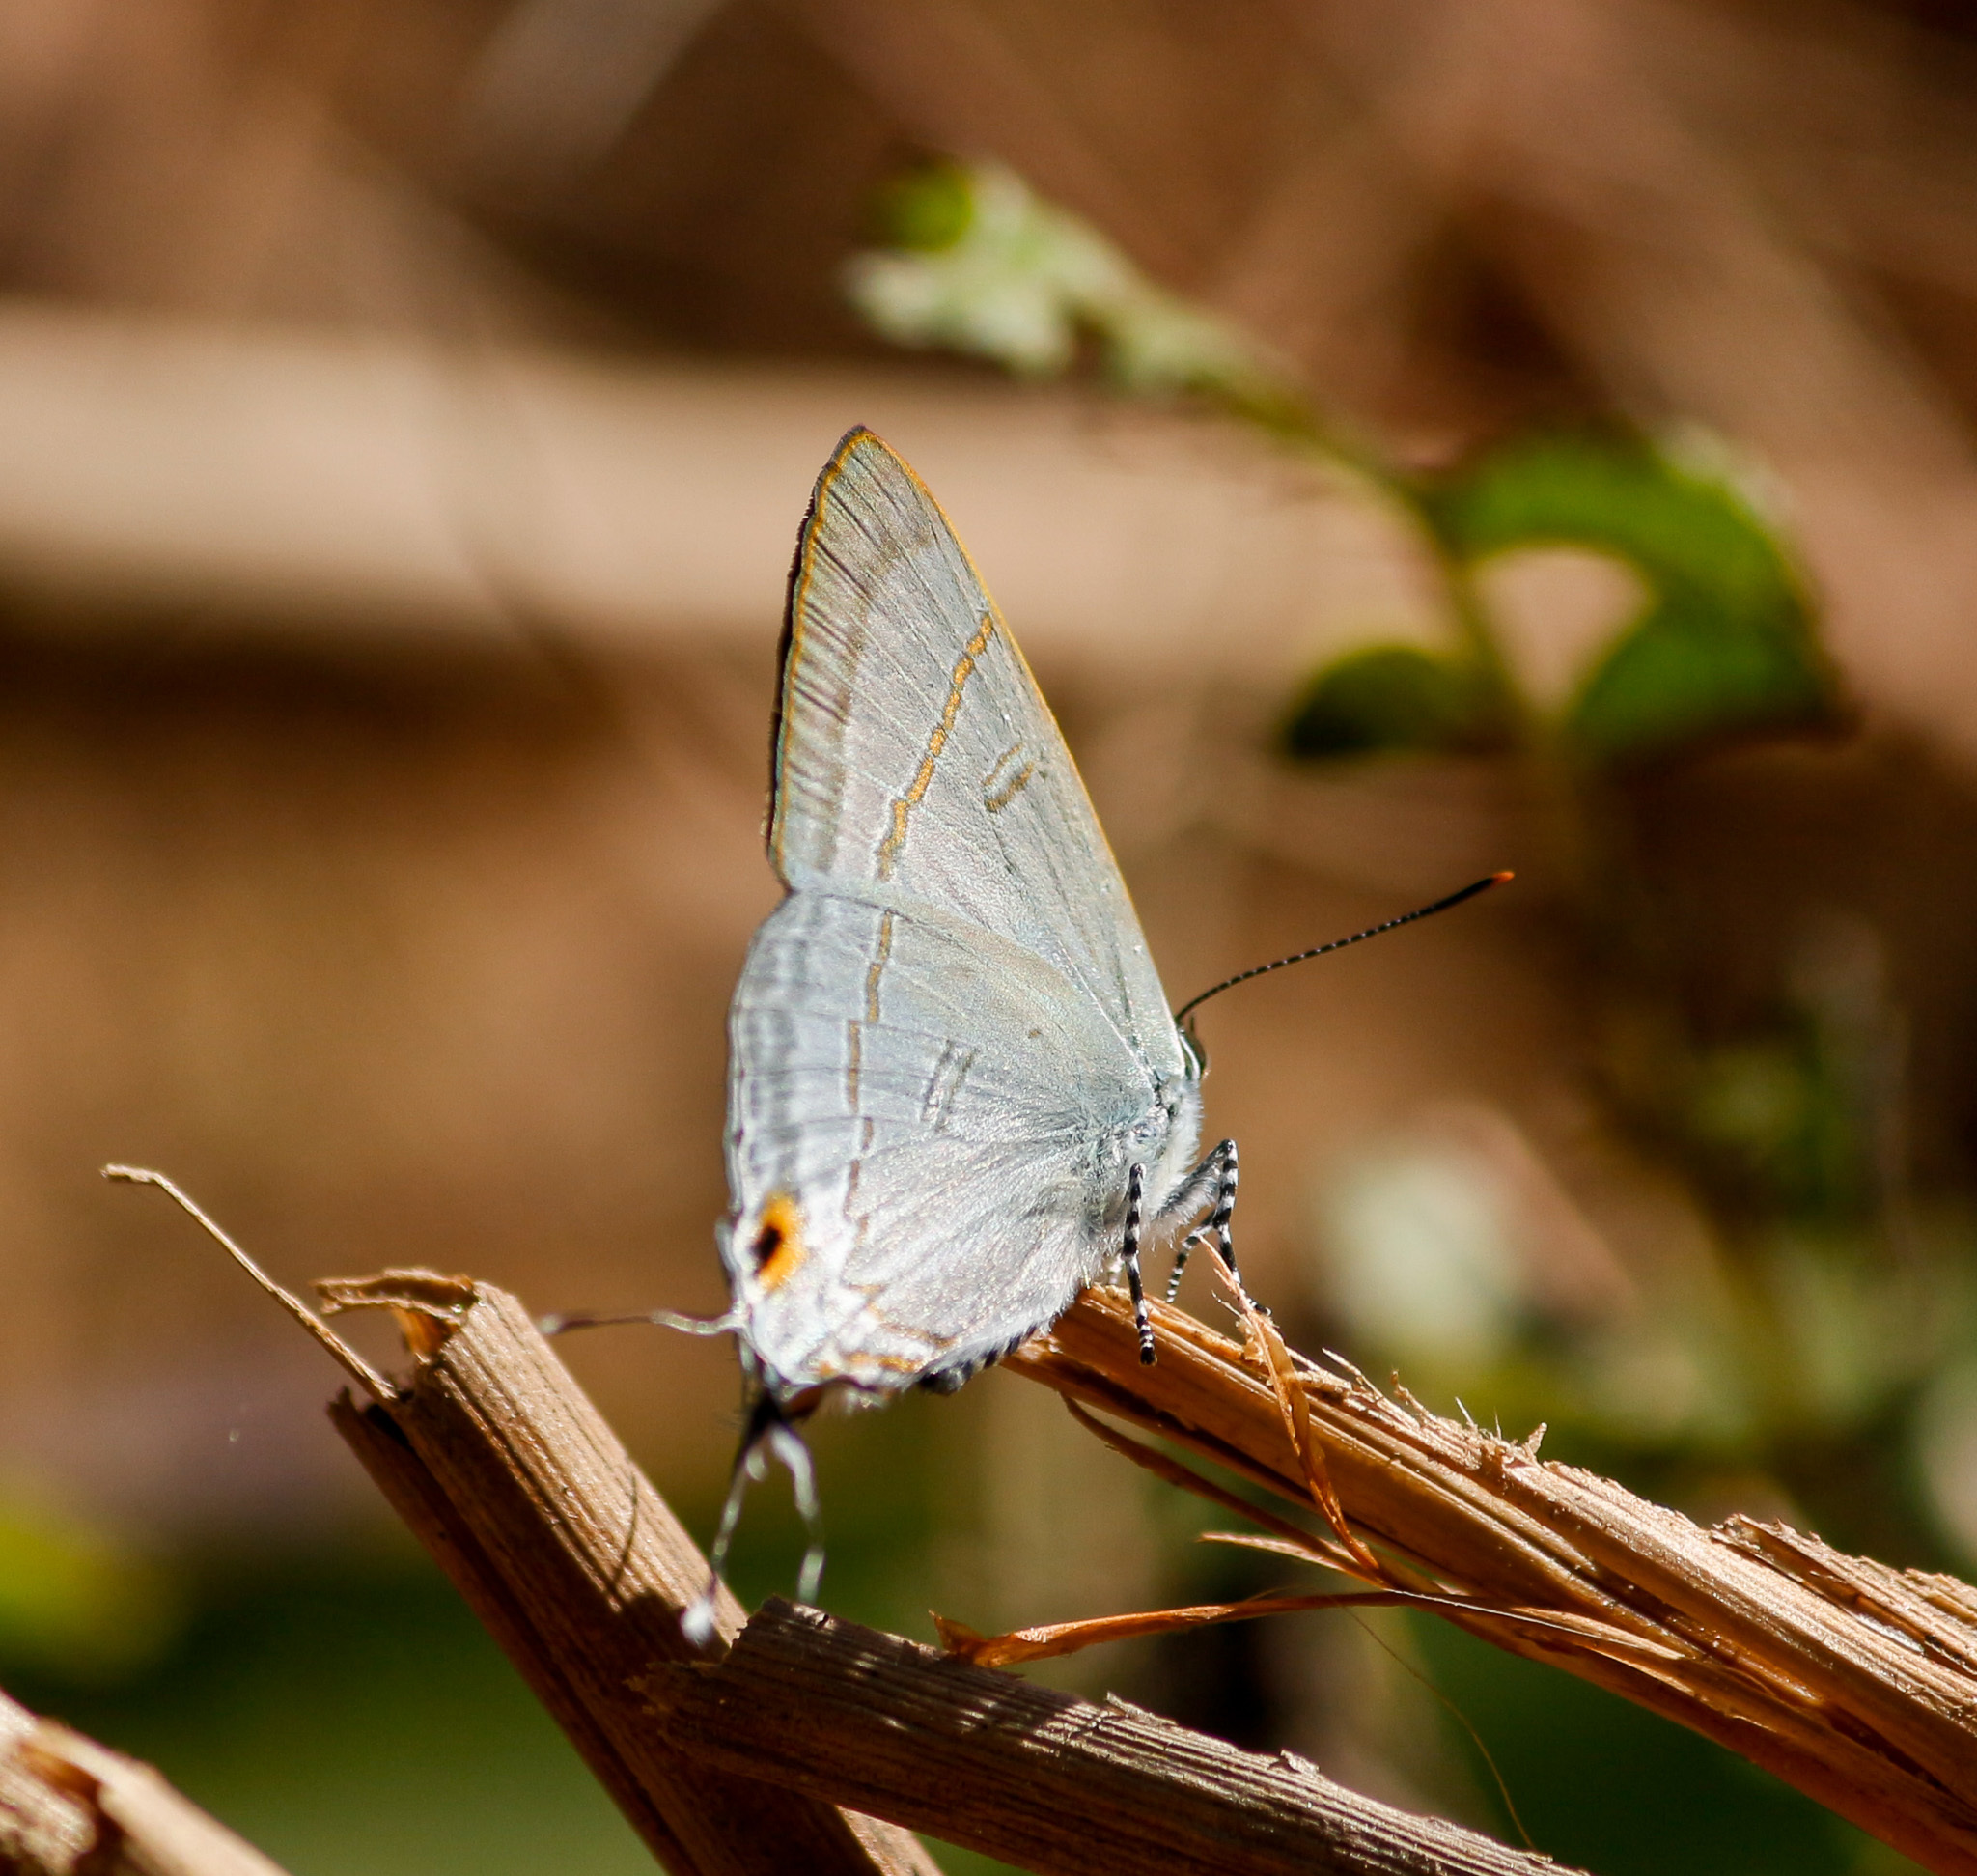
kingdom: Animalia
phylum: Arthropoda
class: Insecta
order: Lepidoptera
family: Lycaenidae
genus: Hypolycaena
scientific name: Hypolycaena erylus
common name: Common tit
